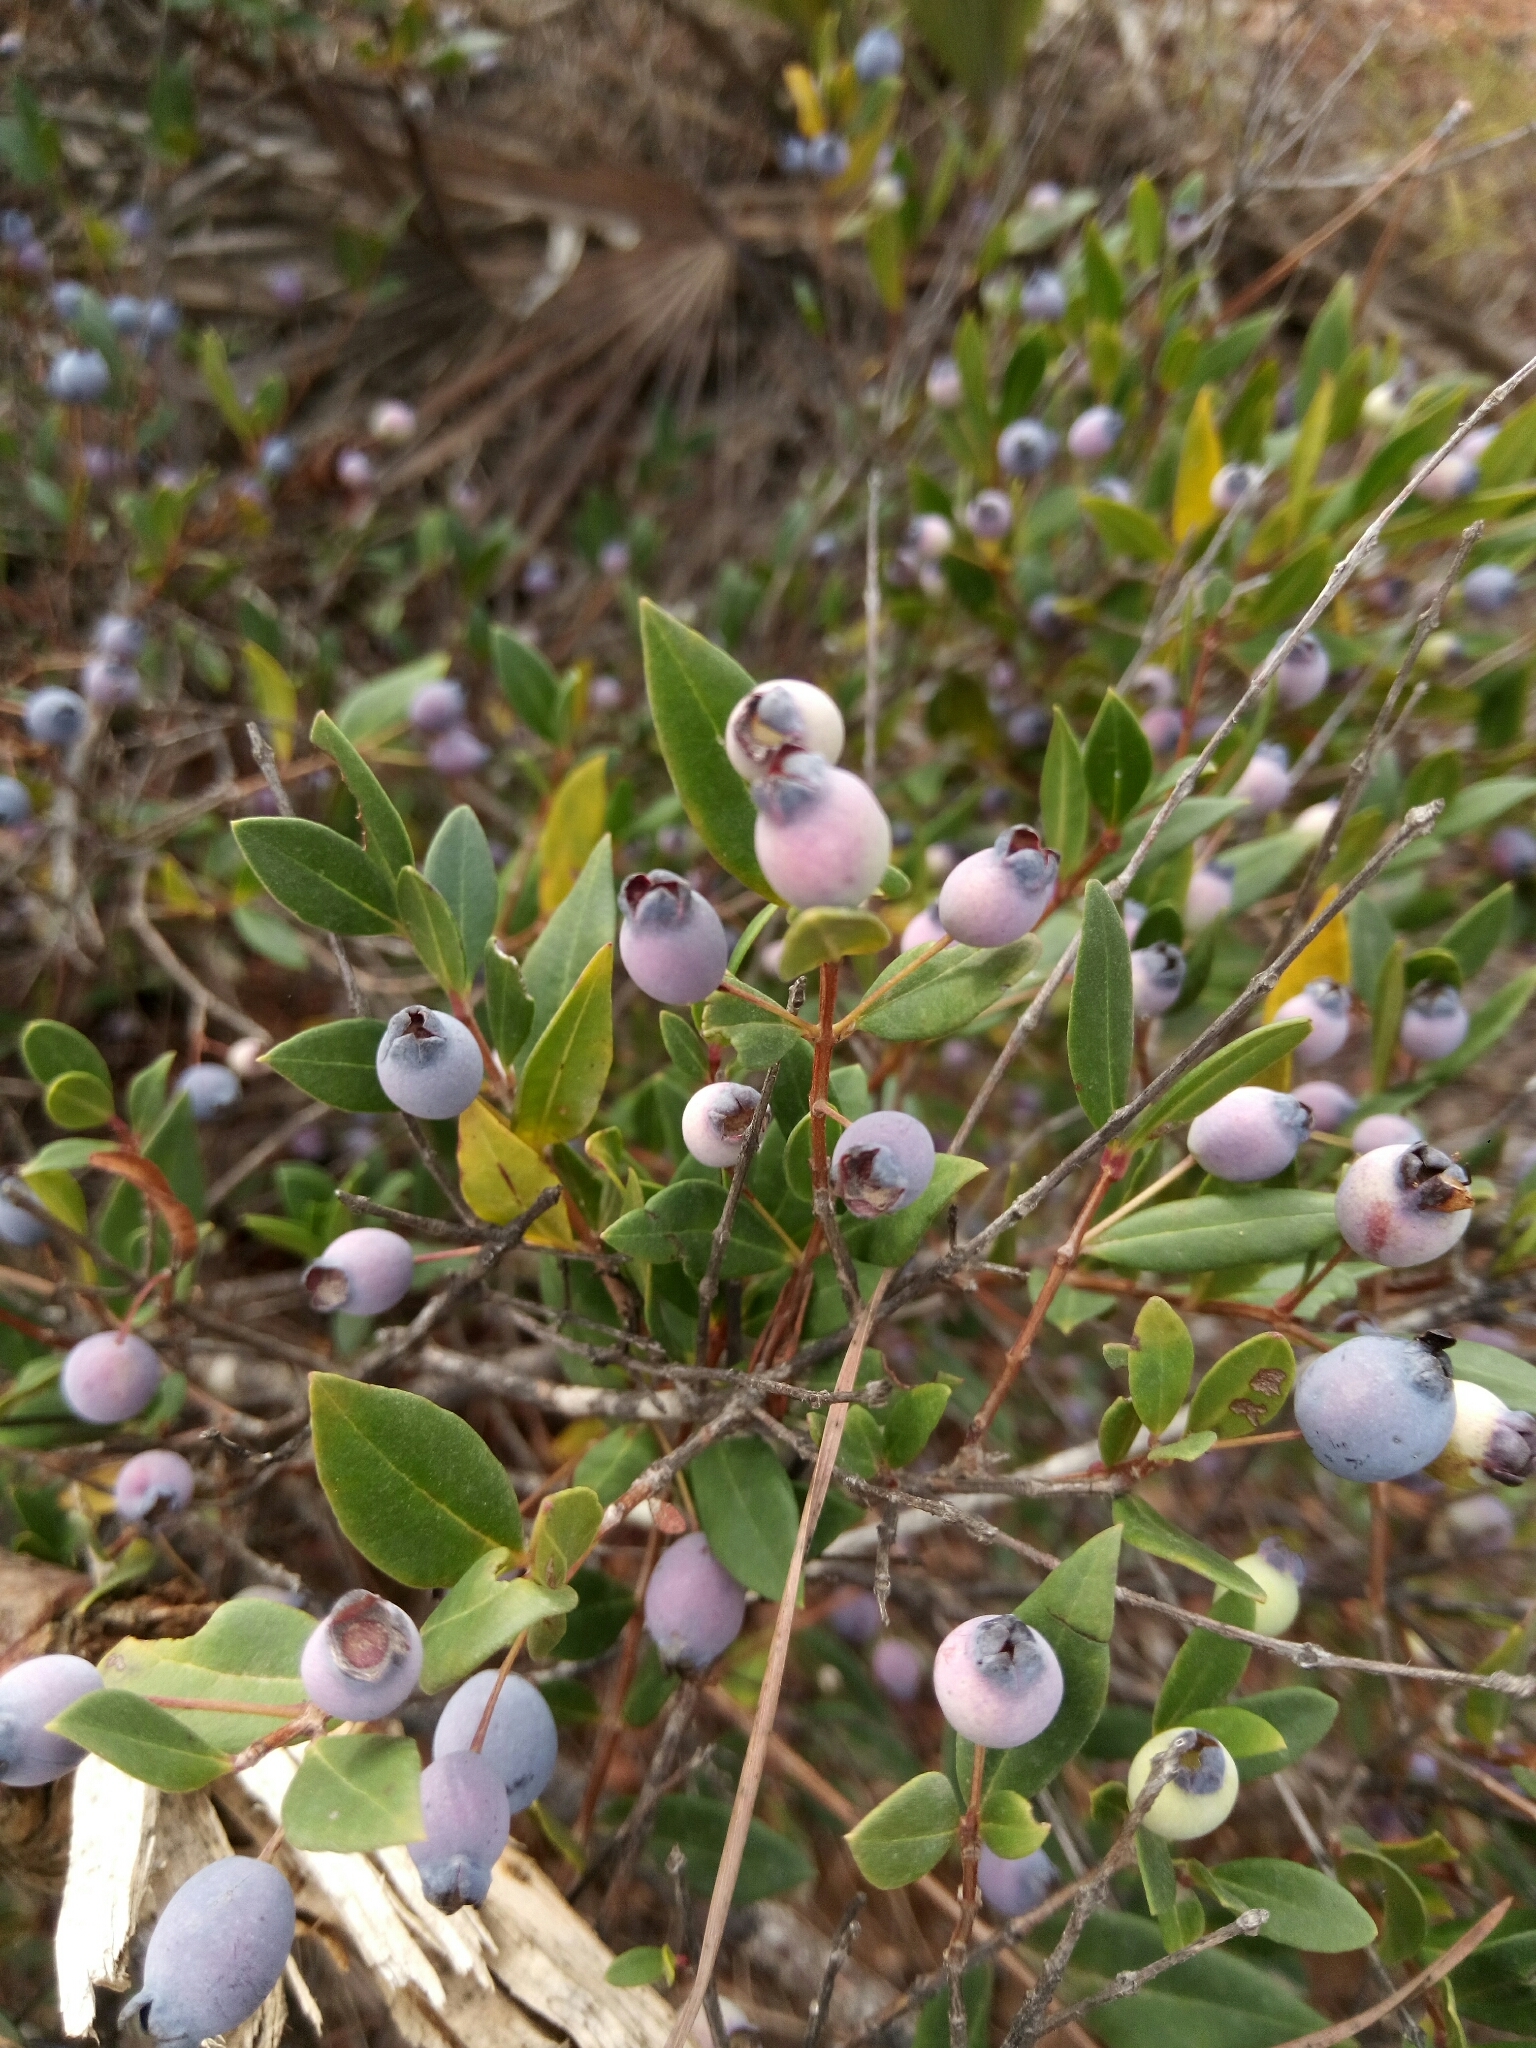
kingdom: Plantae
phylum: Tracheophyta
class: Magnoliopsida
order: Myrtales
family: Myrtaceae
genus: Myrtus
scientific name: Myrtus communis
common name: Myrtle
